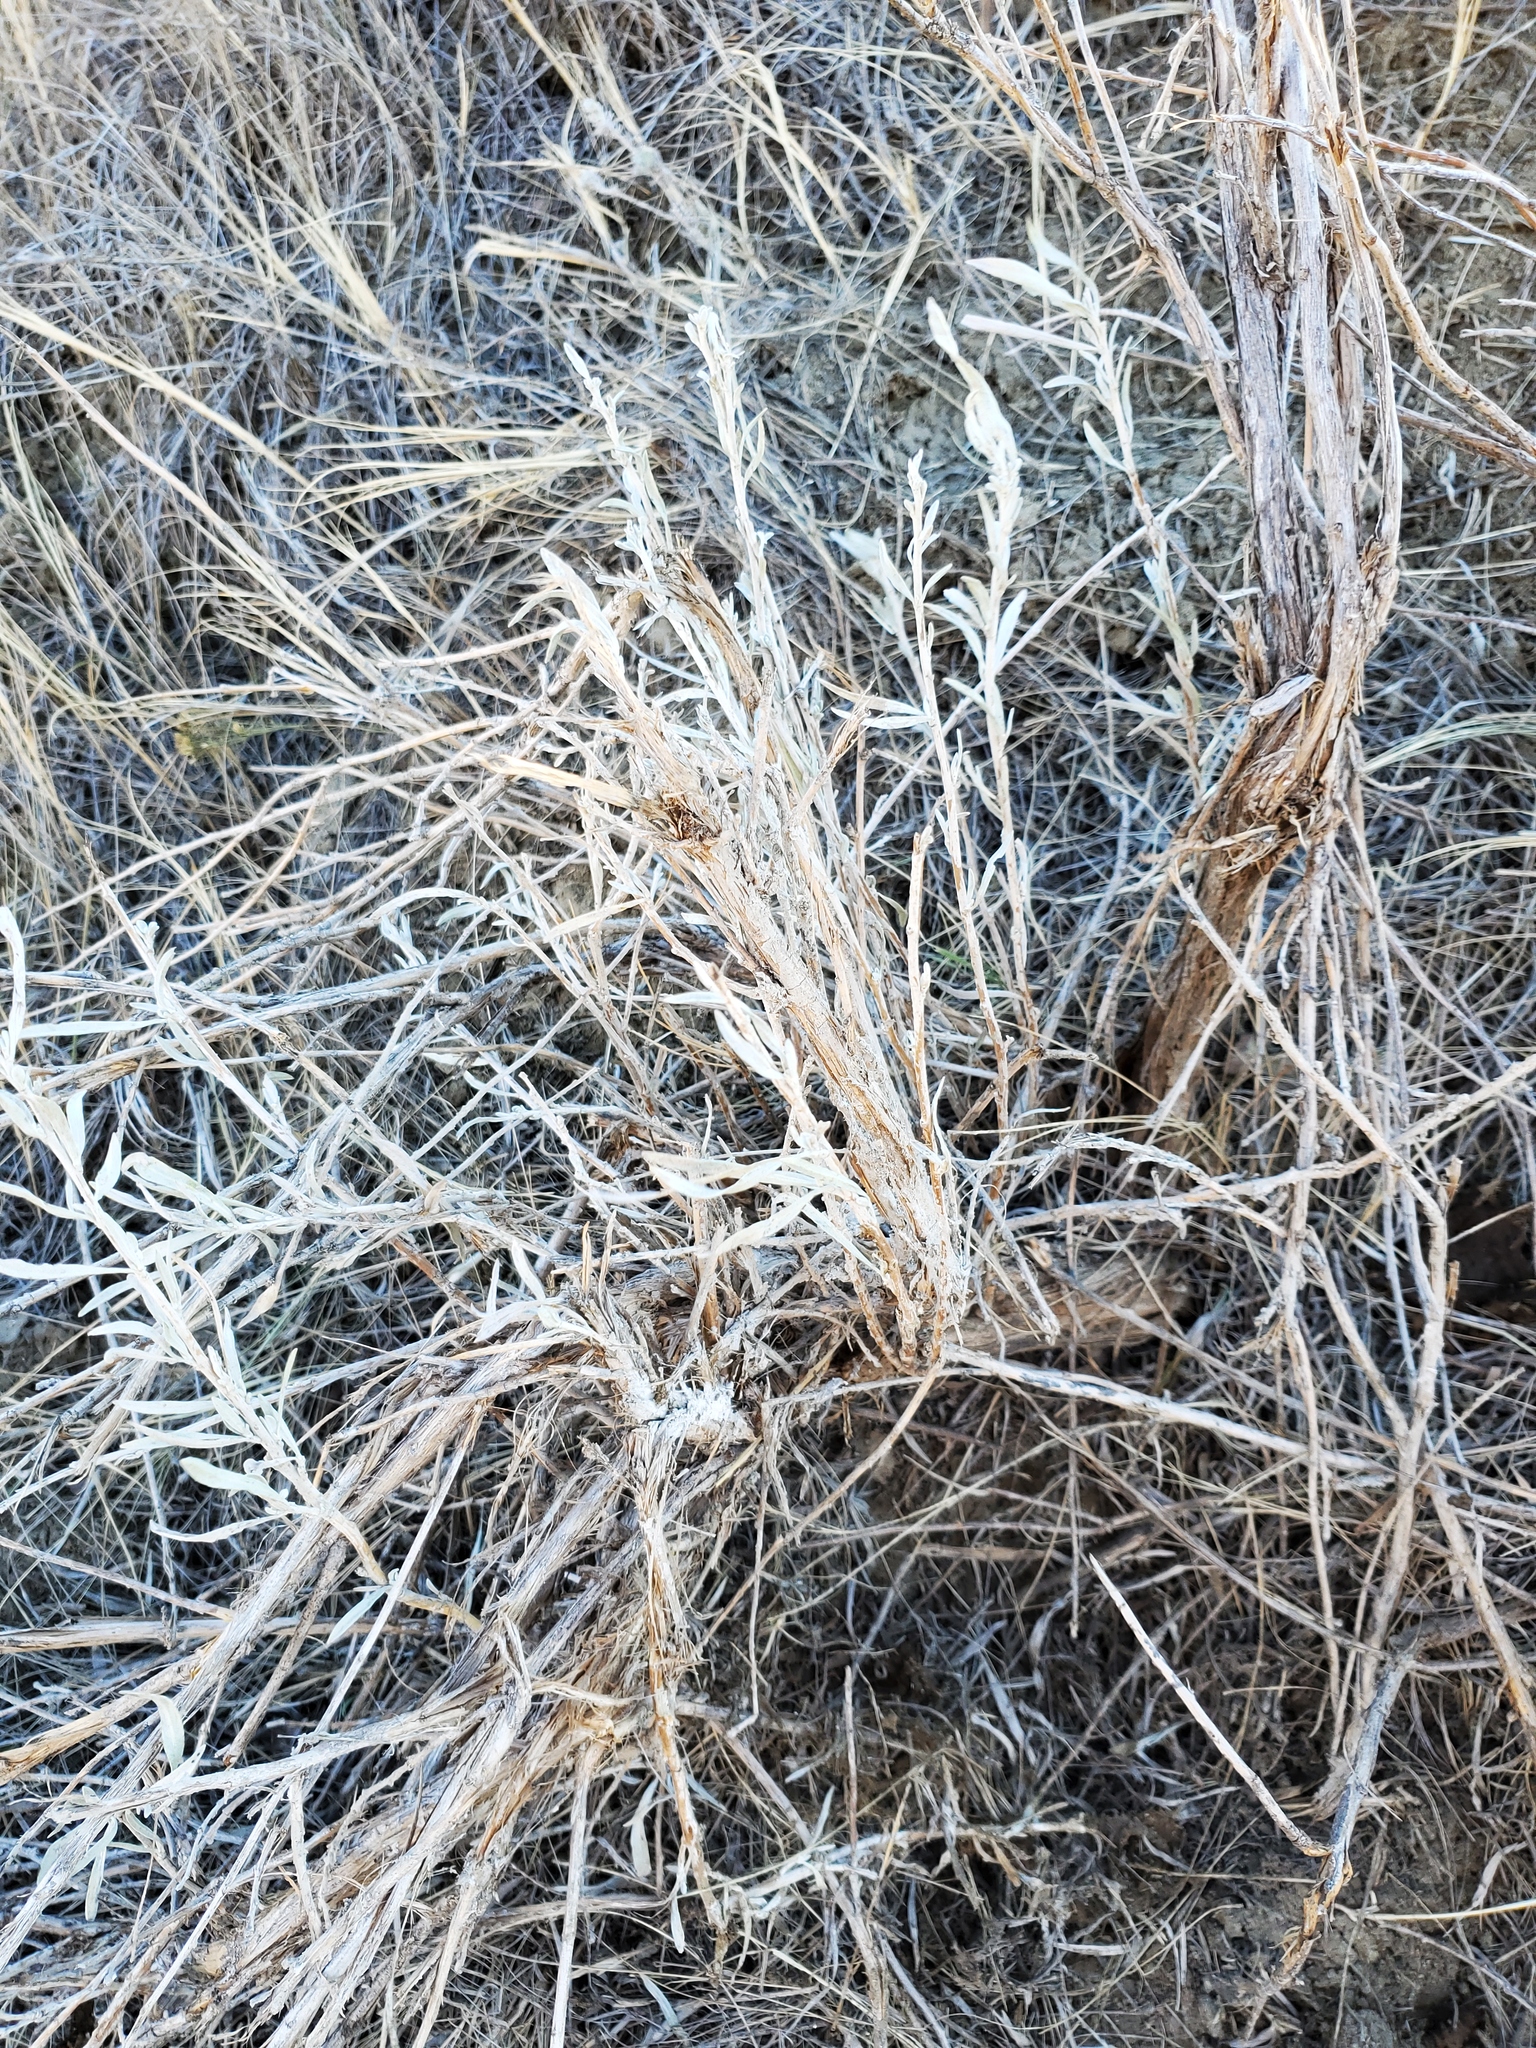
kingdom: Plantae
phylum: Tracheophyta
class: Magnoliopsida
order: Asterales
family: Asteraceae
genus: Artemisia
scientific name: Artemisia cana
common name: Silver sagebrush
